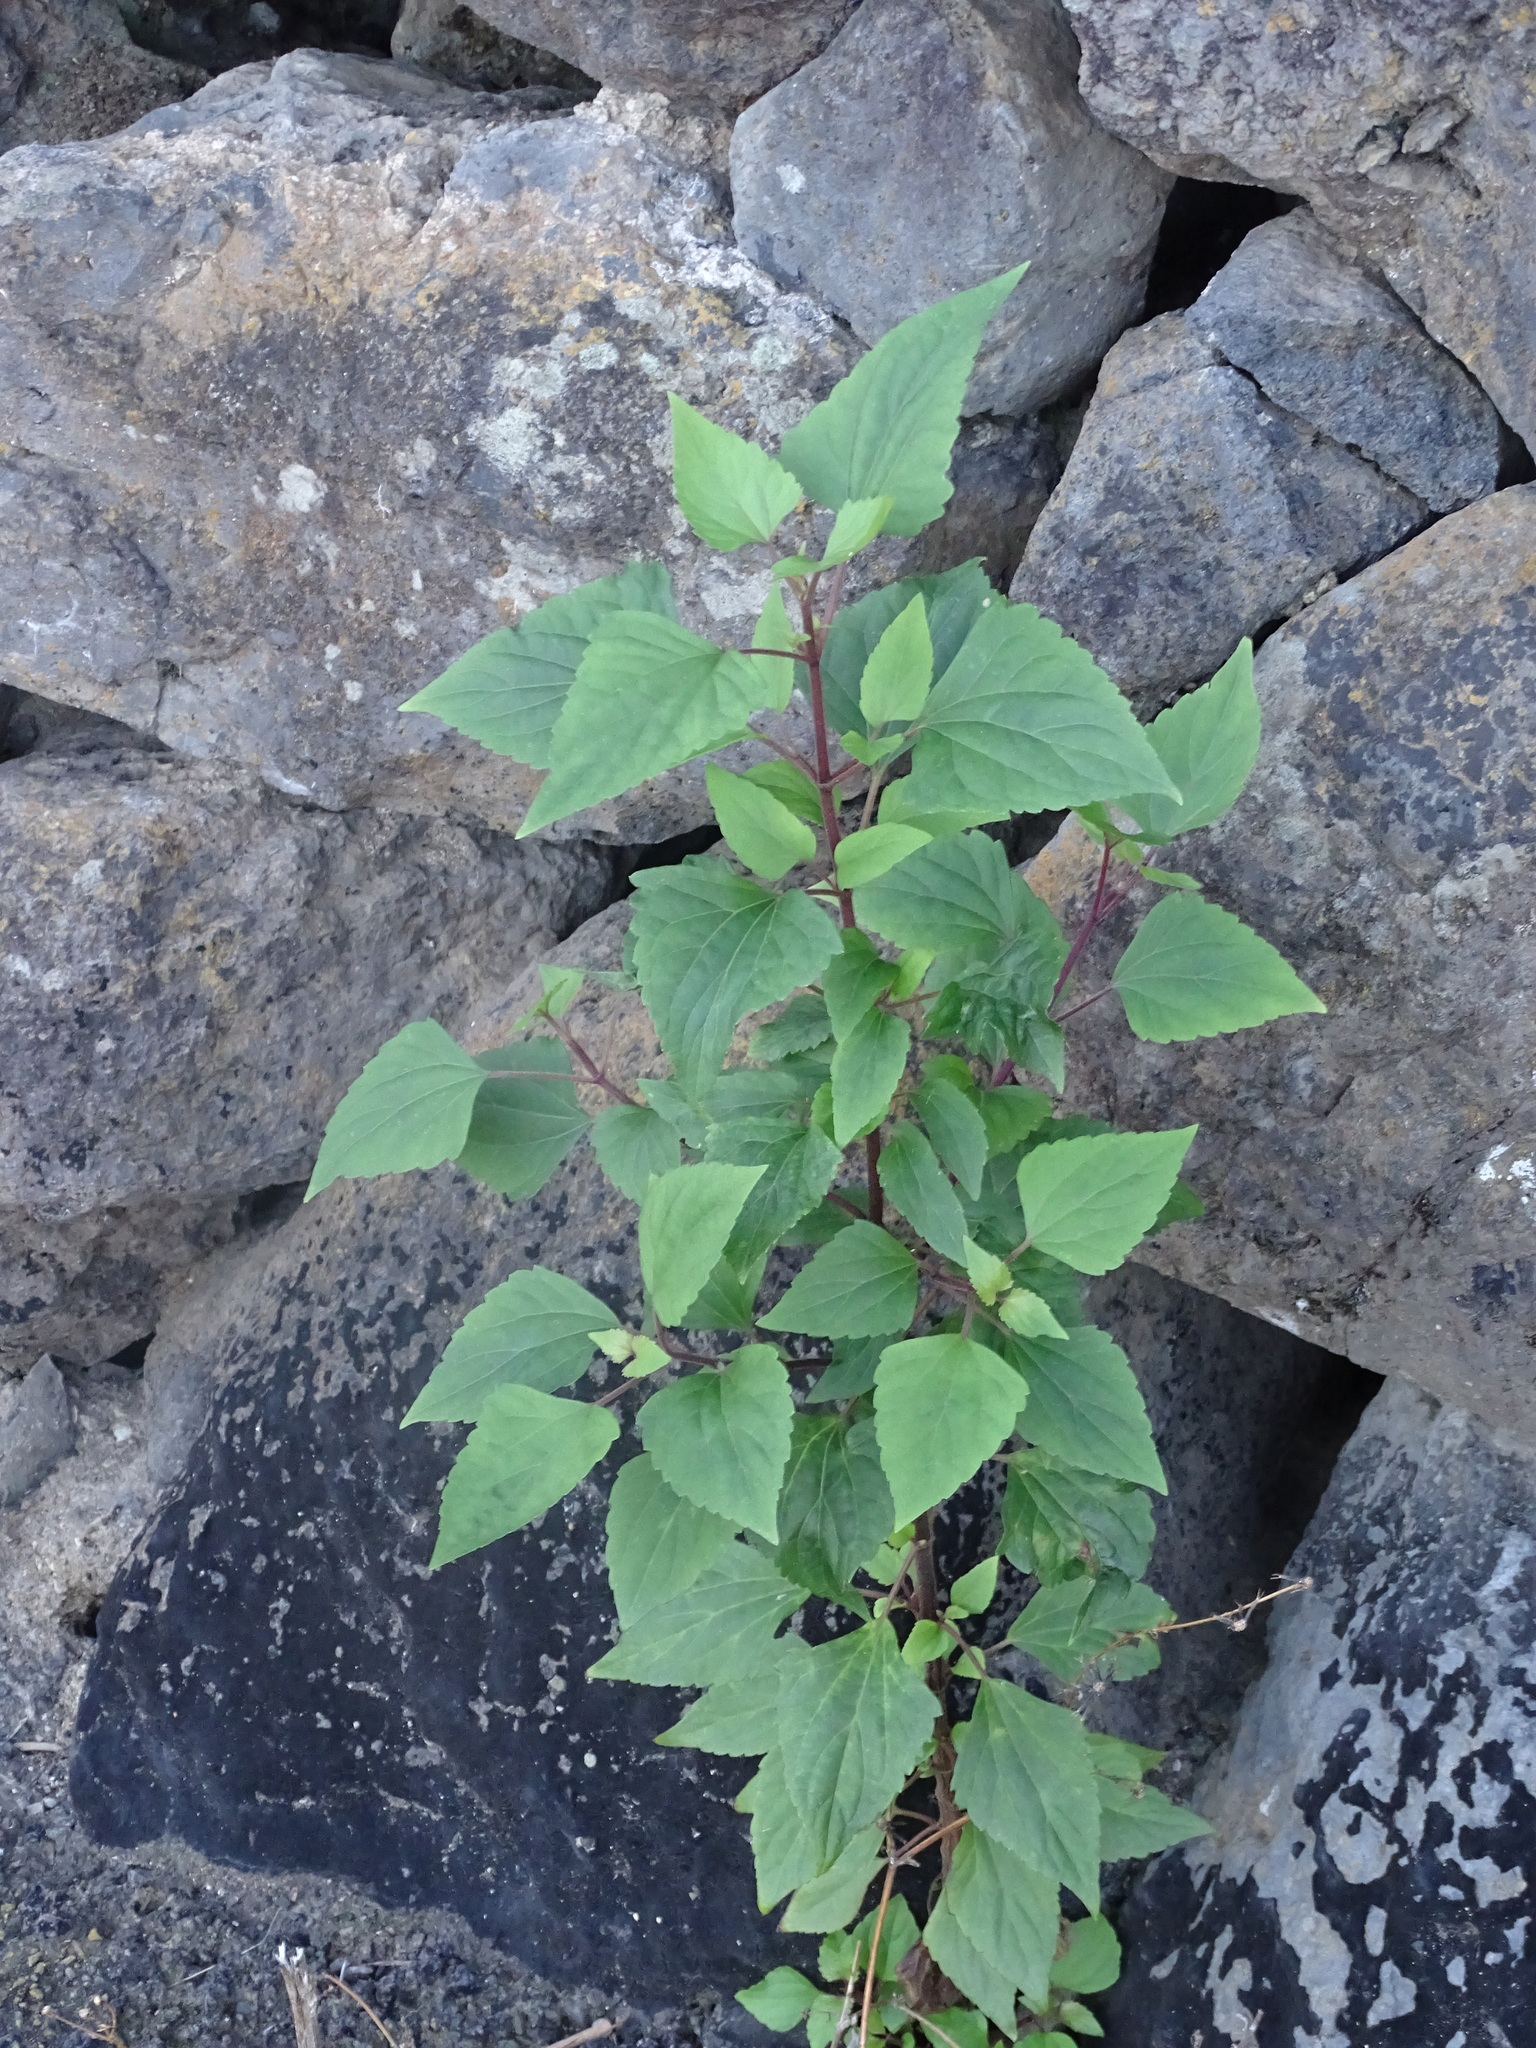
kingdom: Plantae
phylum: Tracheophyta
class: Magnoliopsida
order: Asterales
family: Asteraceae
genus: Ageratina
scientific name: Ageratina adenophora
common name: Sticky snakeroot
